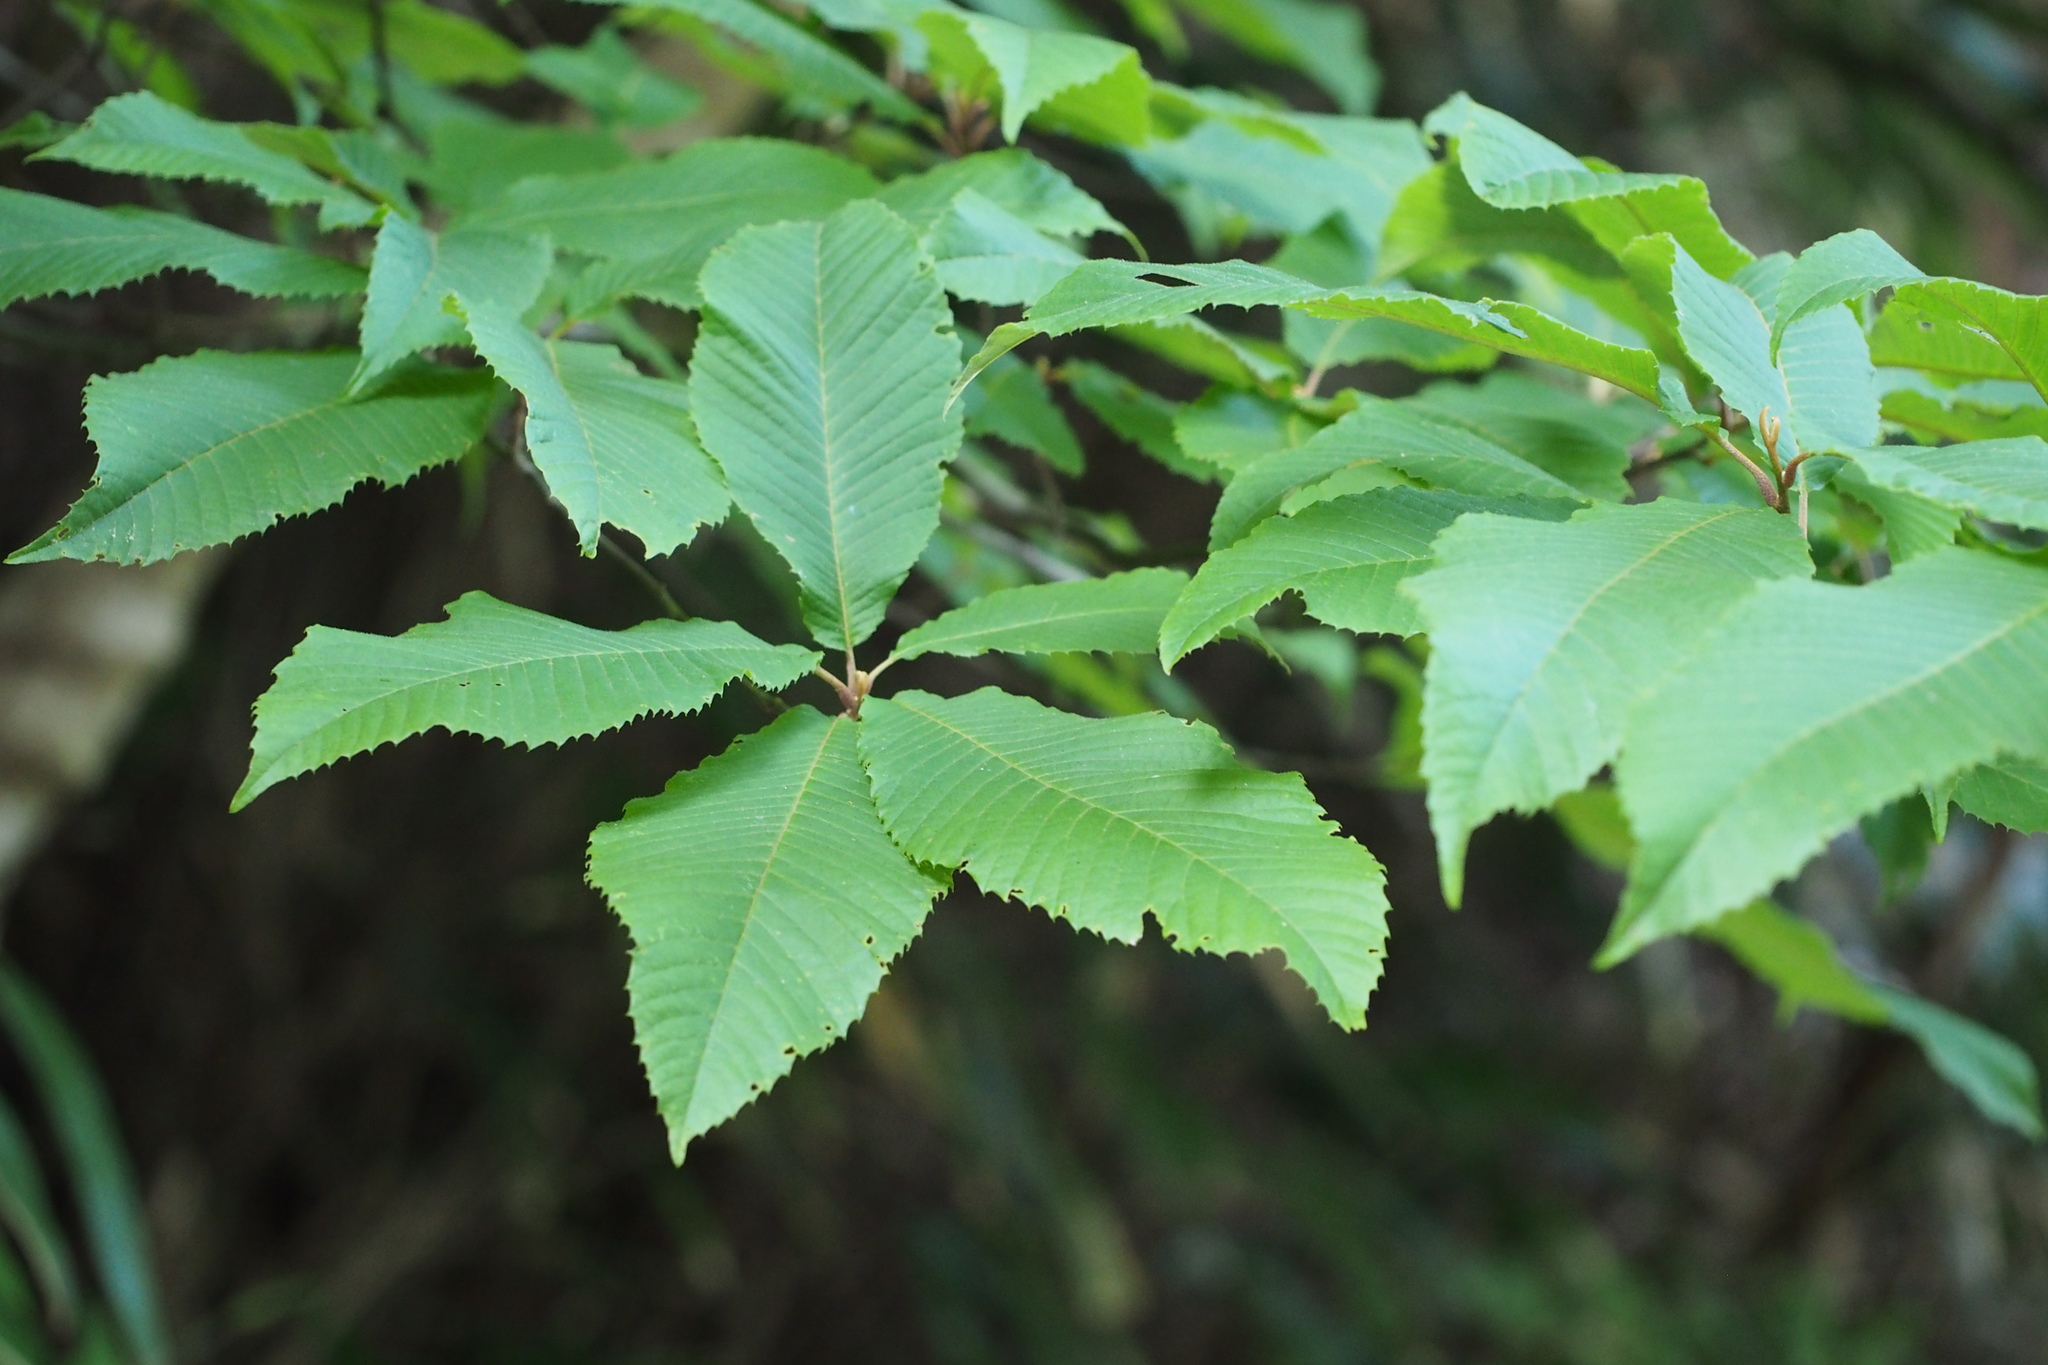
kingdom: Plantae
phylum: Tracheophyta
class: Magnoliopsida
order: Proteales
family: Sabiaceae
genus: Meliosma
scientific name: Meliosma myriantha
